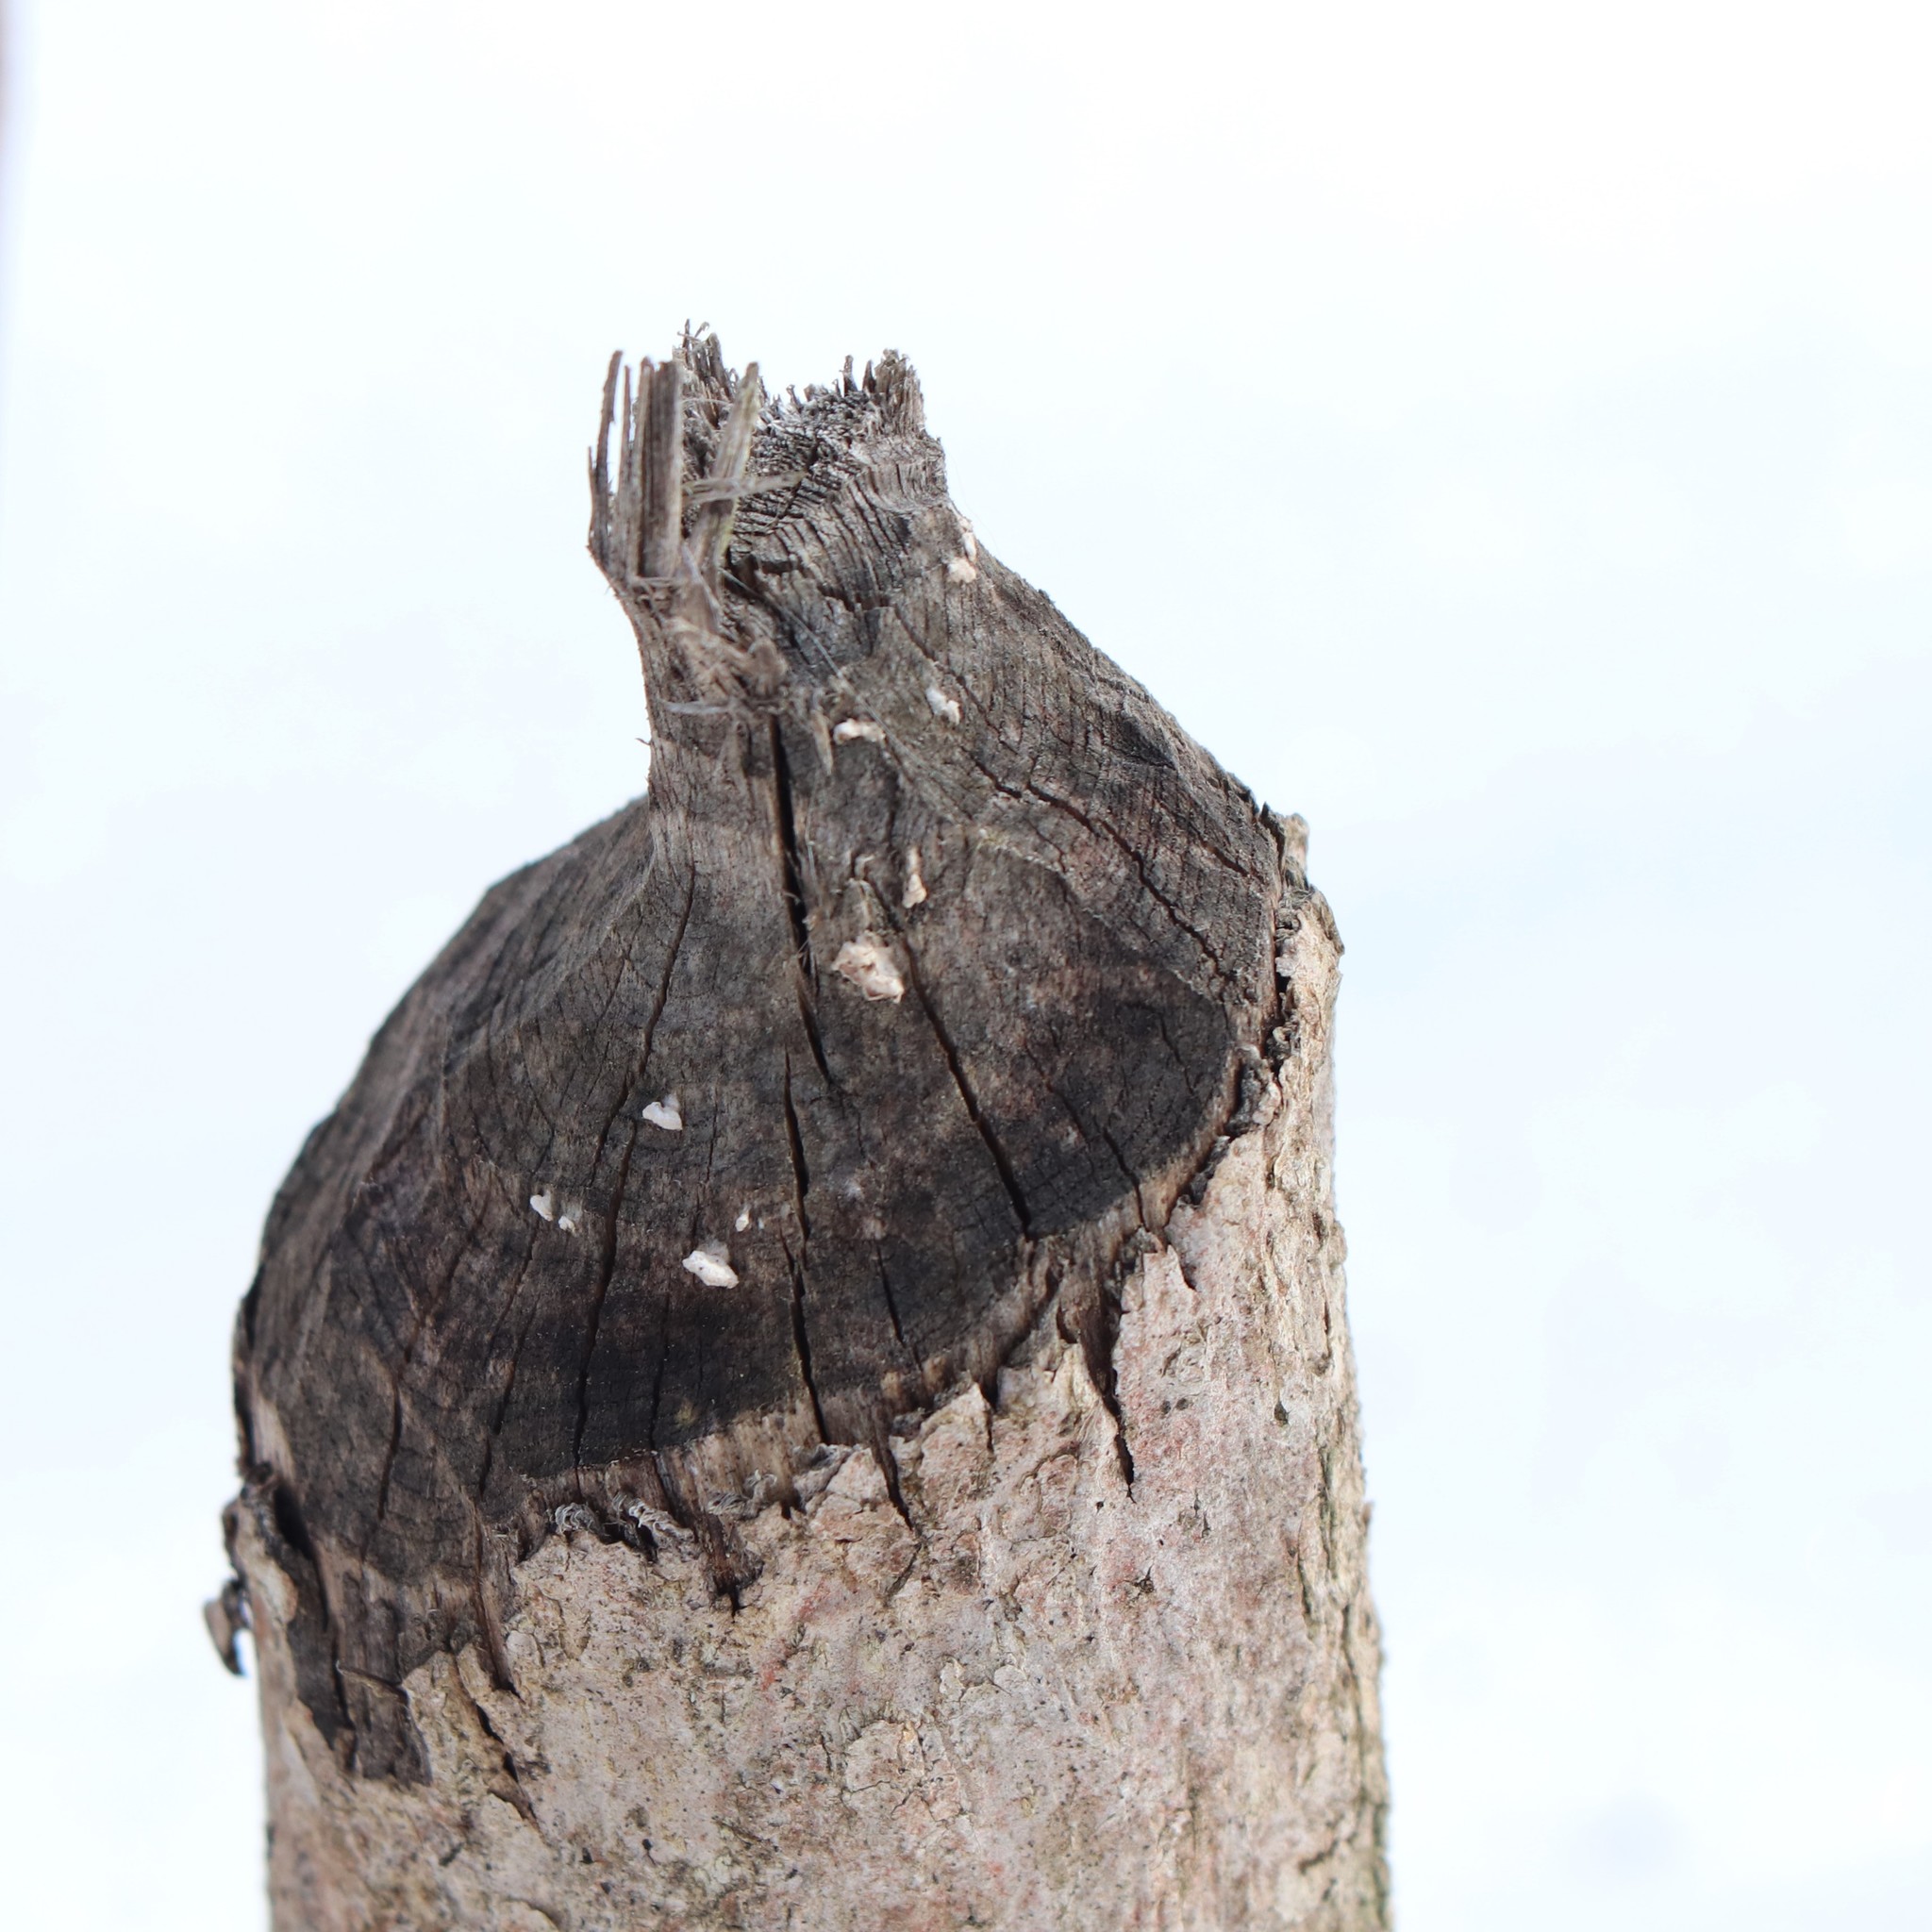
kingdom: Animalia
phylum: Chordata
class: Mammalia
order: Rodentia
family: Castoridae
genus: Castor
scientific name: Castor canadensis
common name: American beaver
